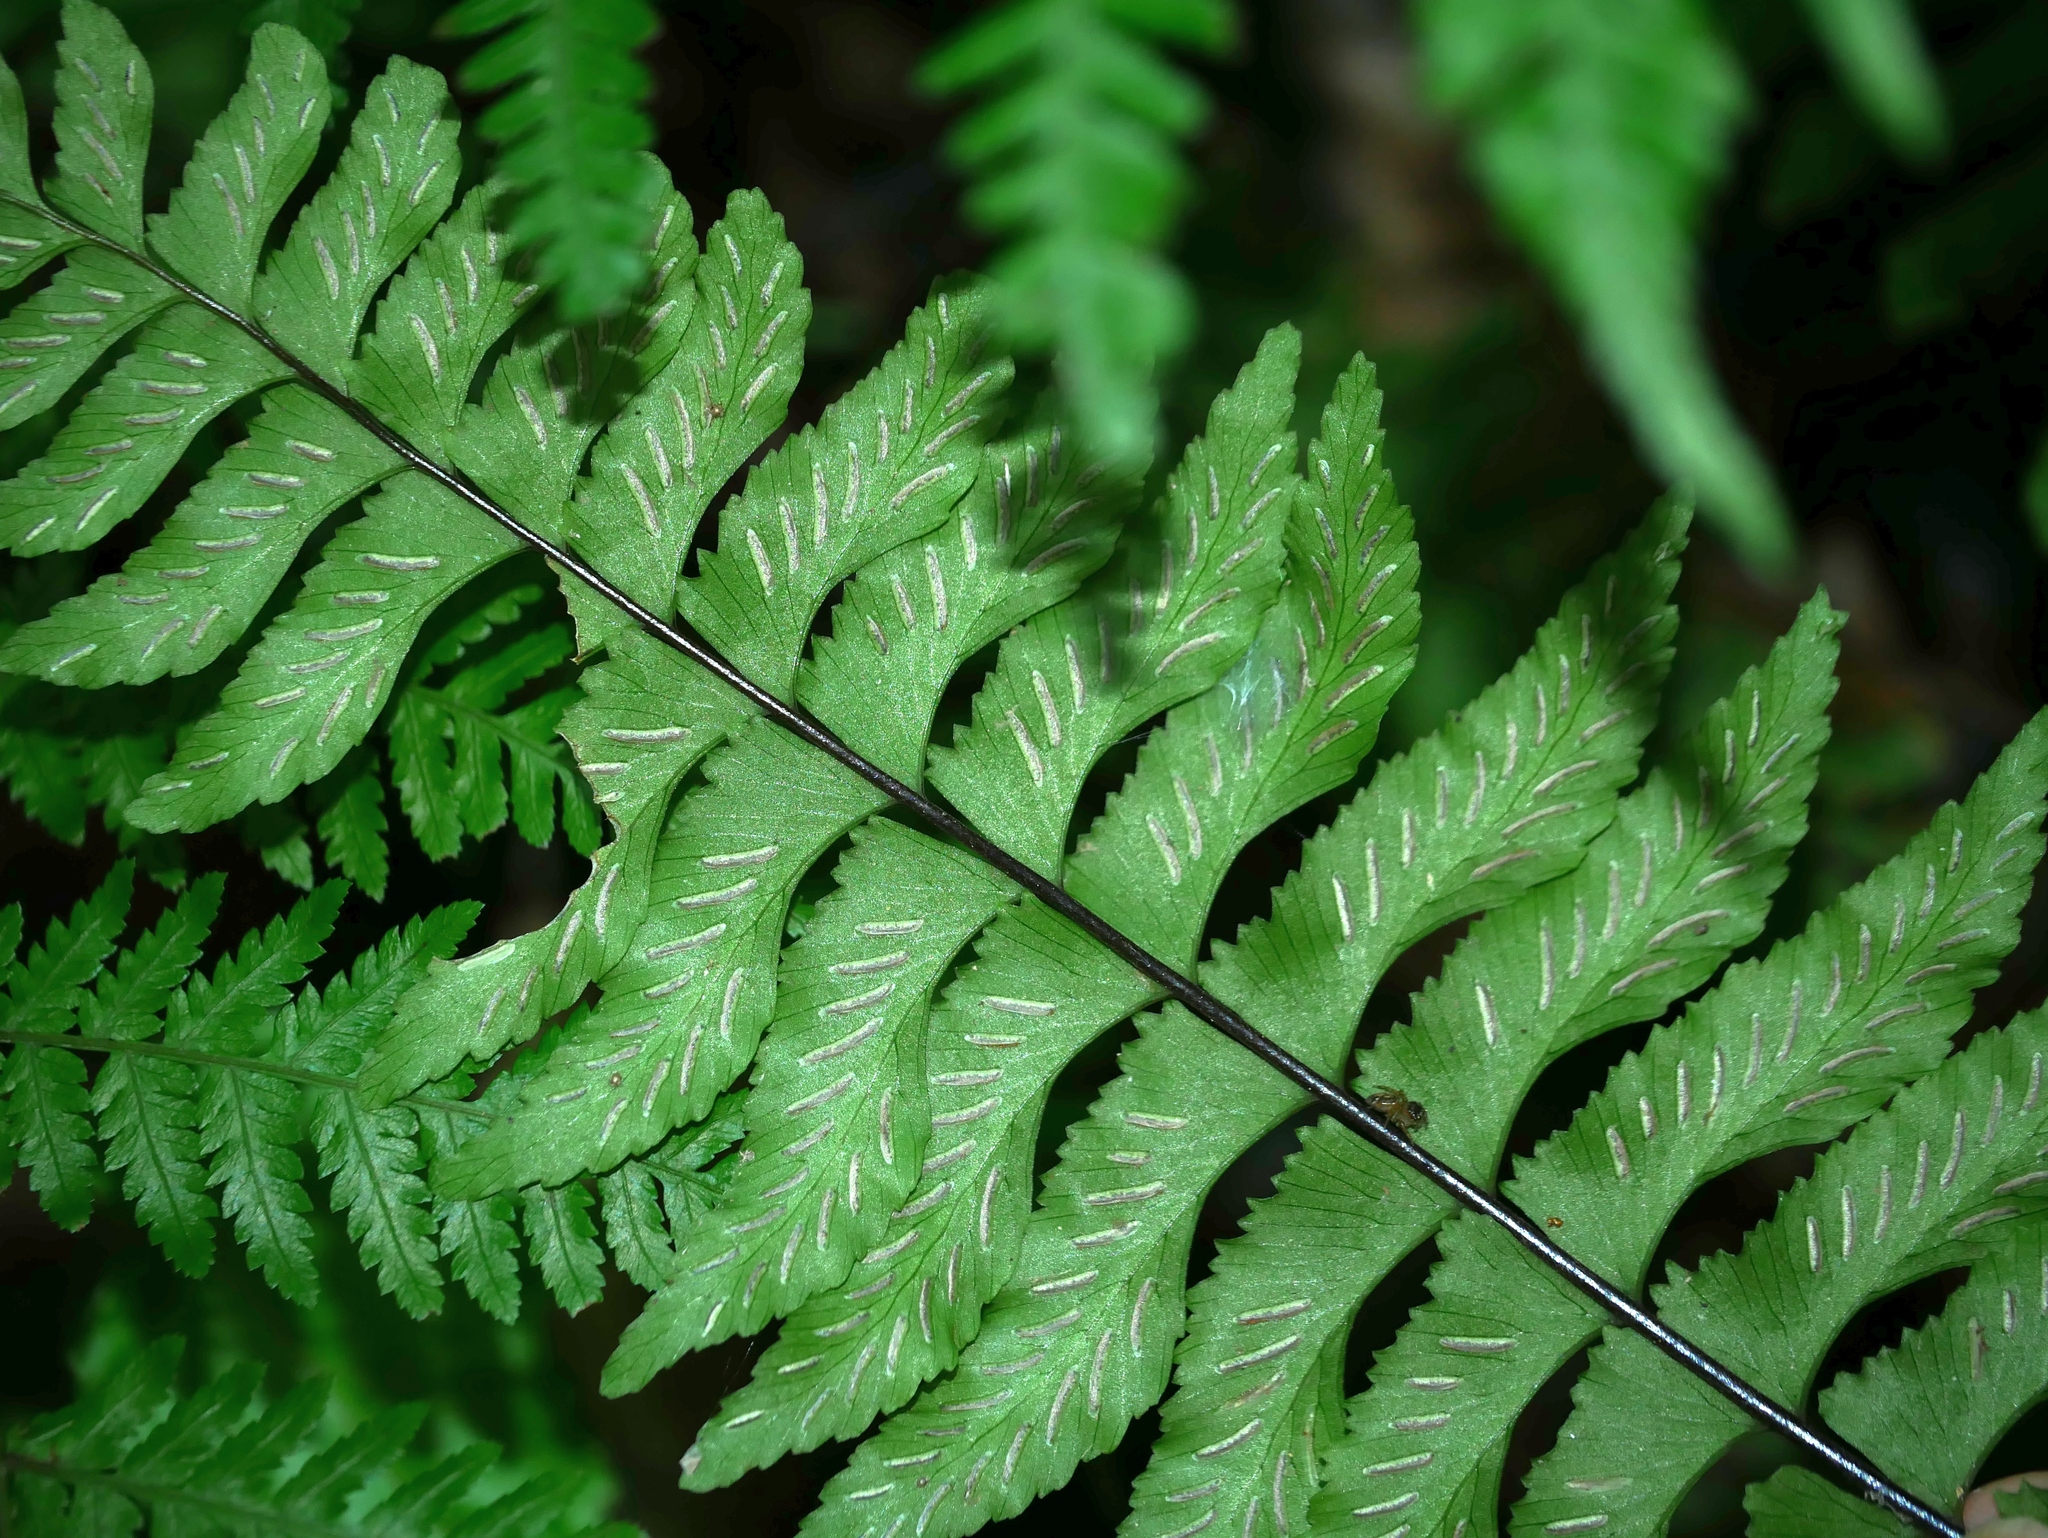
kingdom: Plantae
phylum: Tracheophyta
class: Polypodiopsida
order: Polypodiales
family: Aspleniaceae
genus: Hymenasplenium
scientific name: Hymenasplenium excisum
